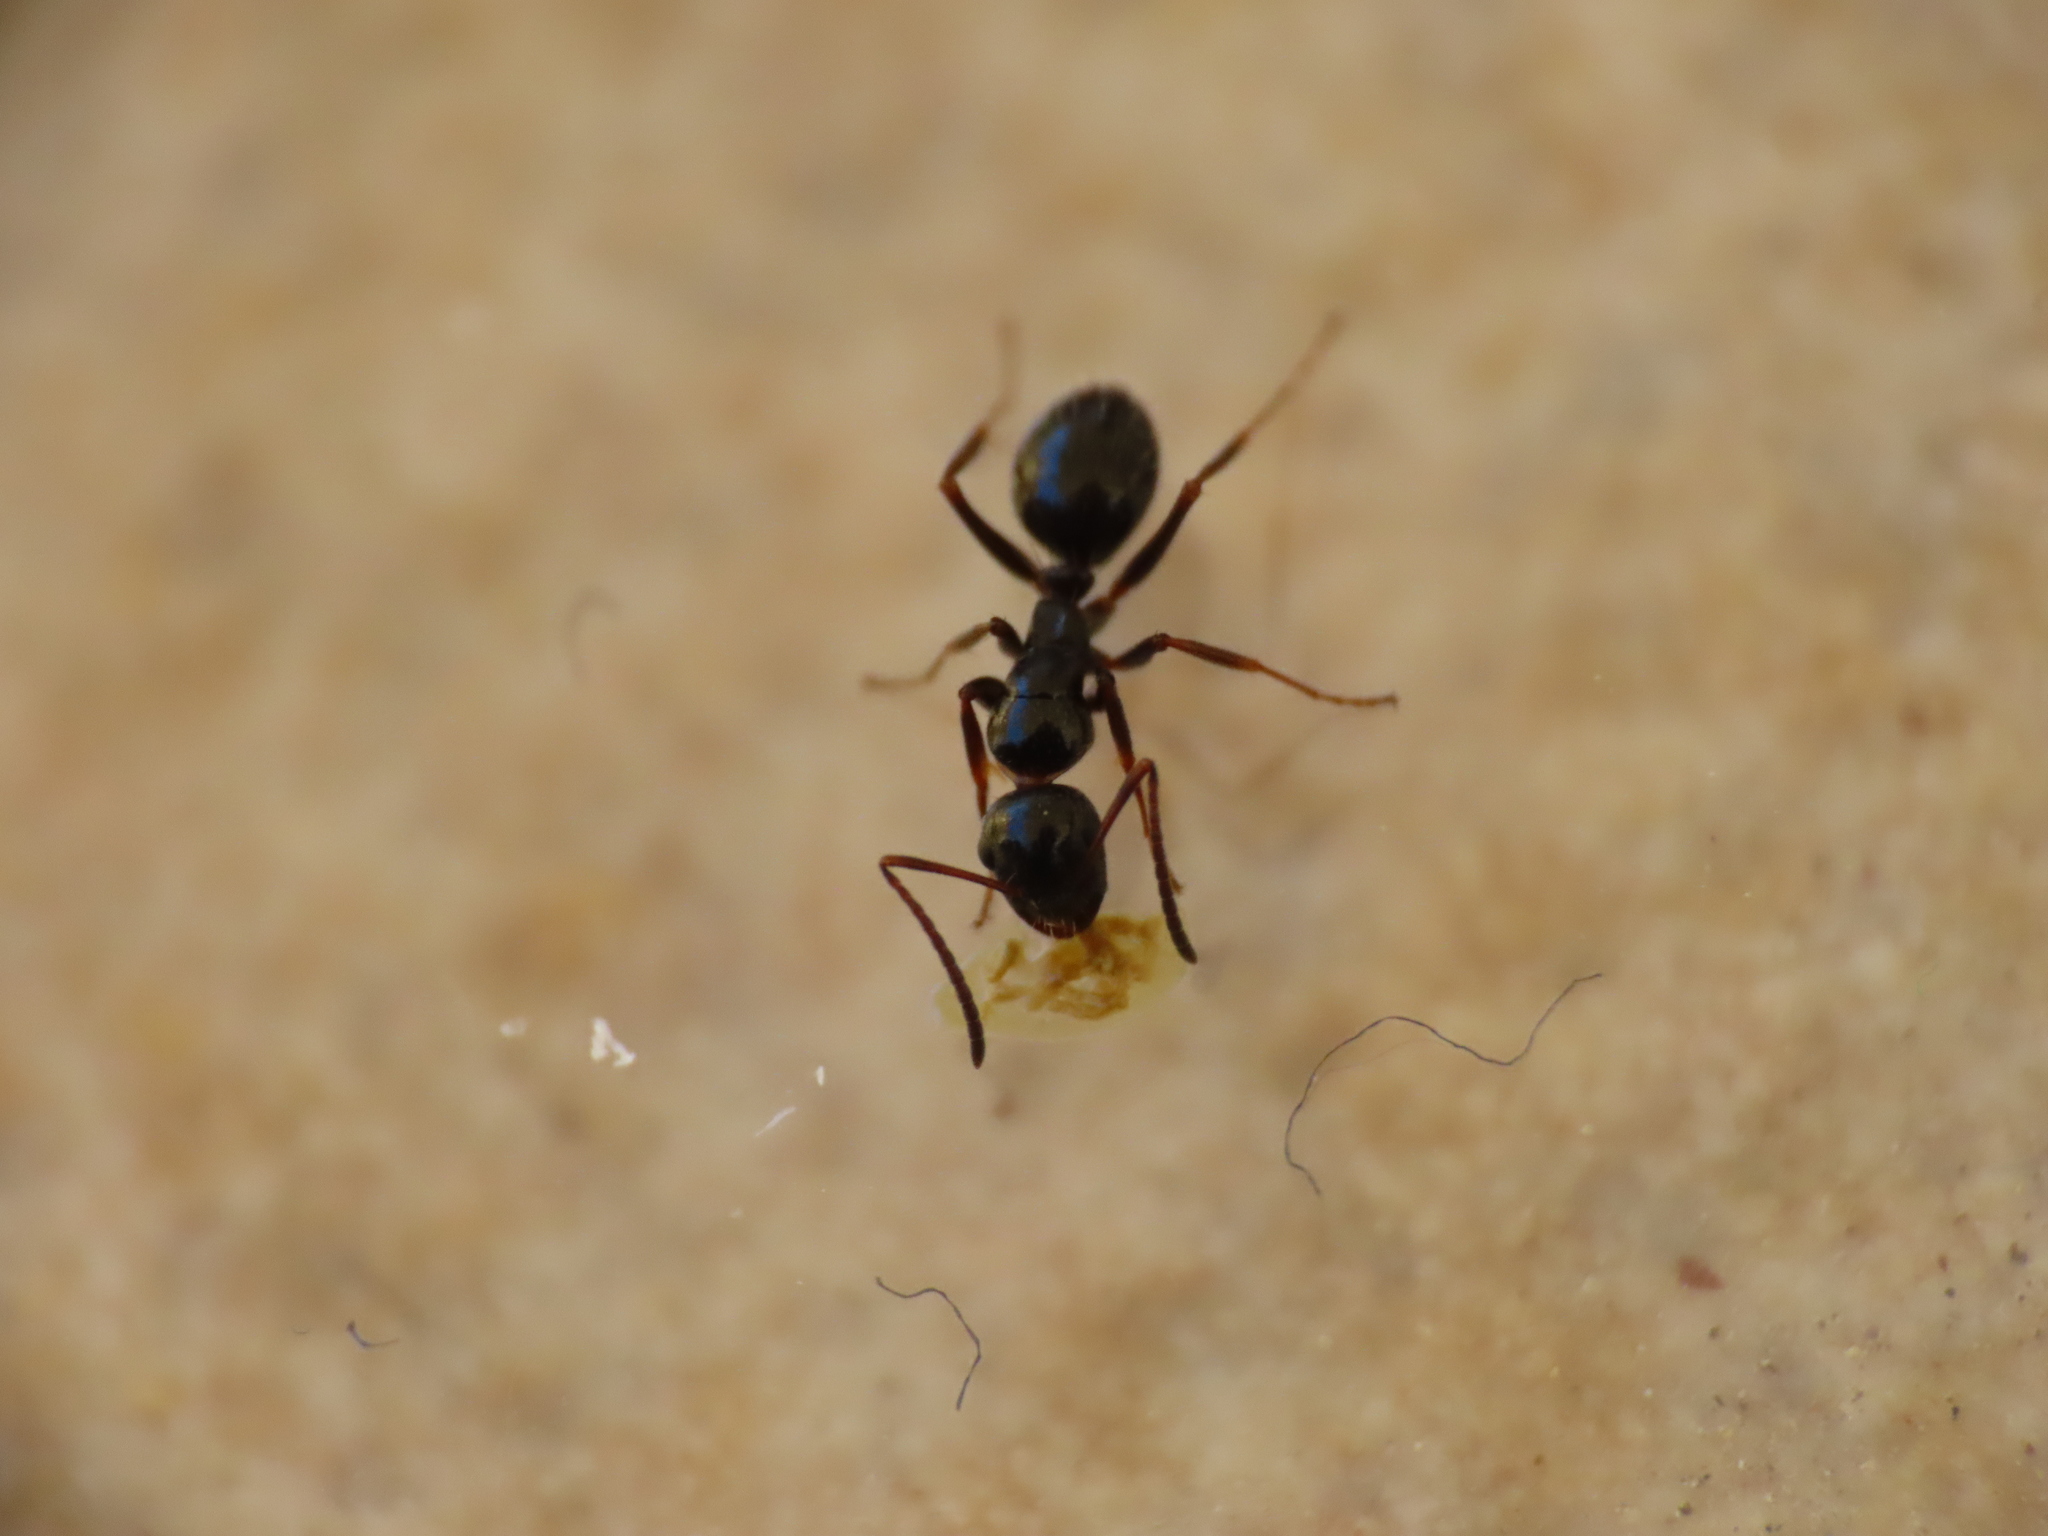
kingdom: Animalia
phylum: Arthropoda
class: Insecta
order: Hymenoptera
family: Formicidae
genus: Camponotus
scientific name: Camponotus piceus
